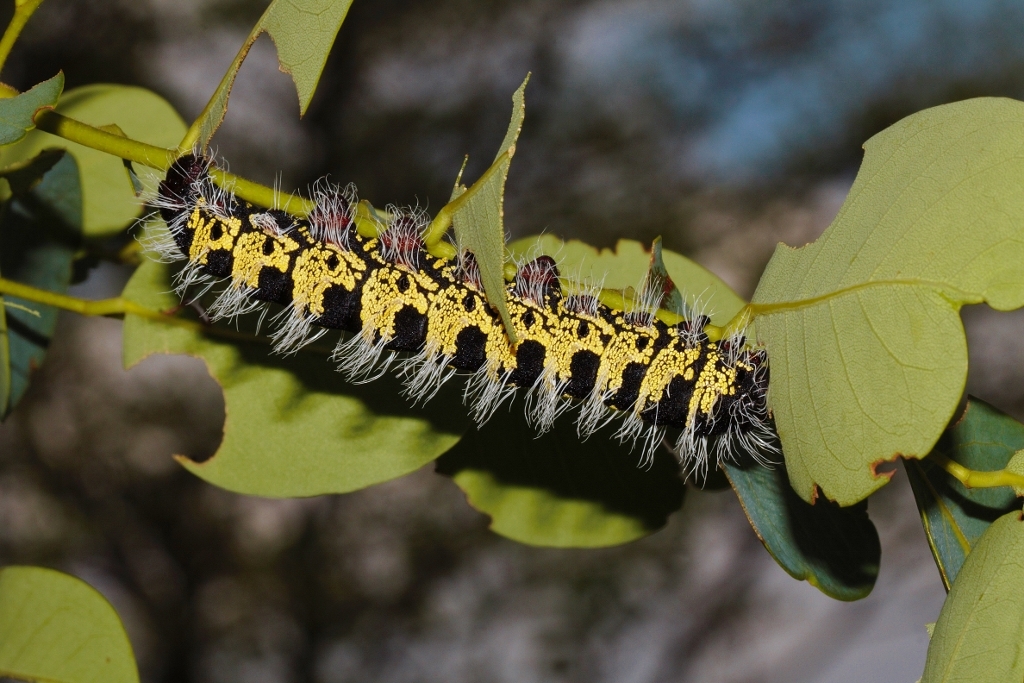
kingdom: Animalia
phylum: Arthropoda
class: Insecta
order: Lepidoptera
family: Saturniidae
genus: Cirina
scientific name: Cirina forda
